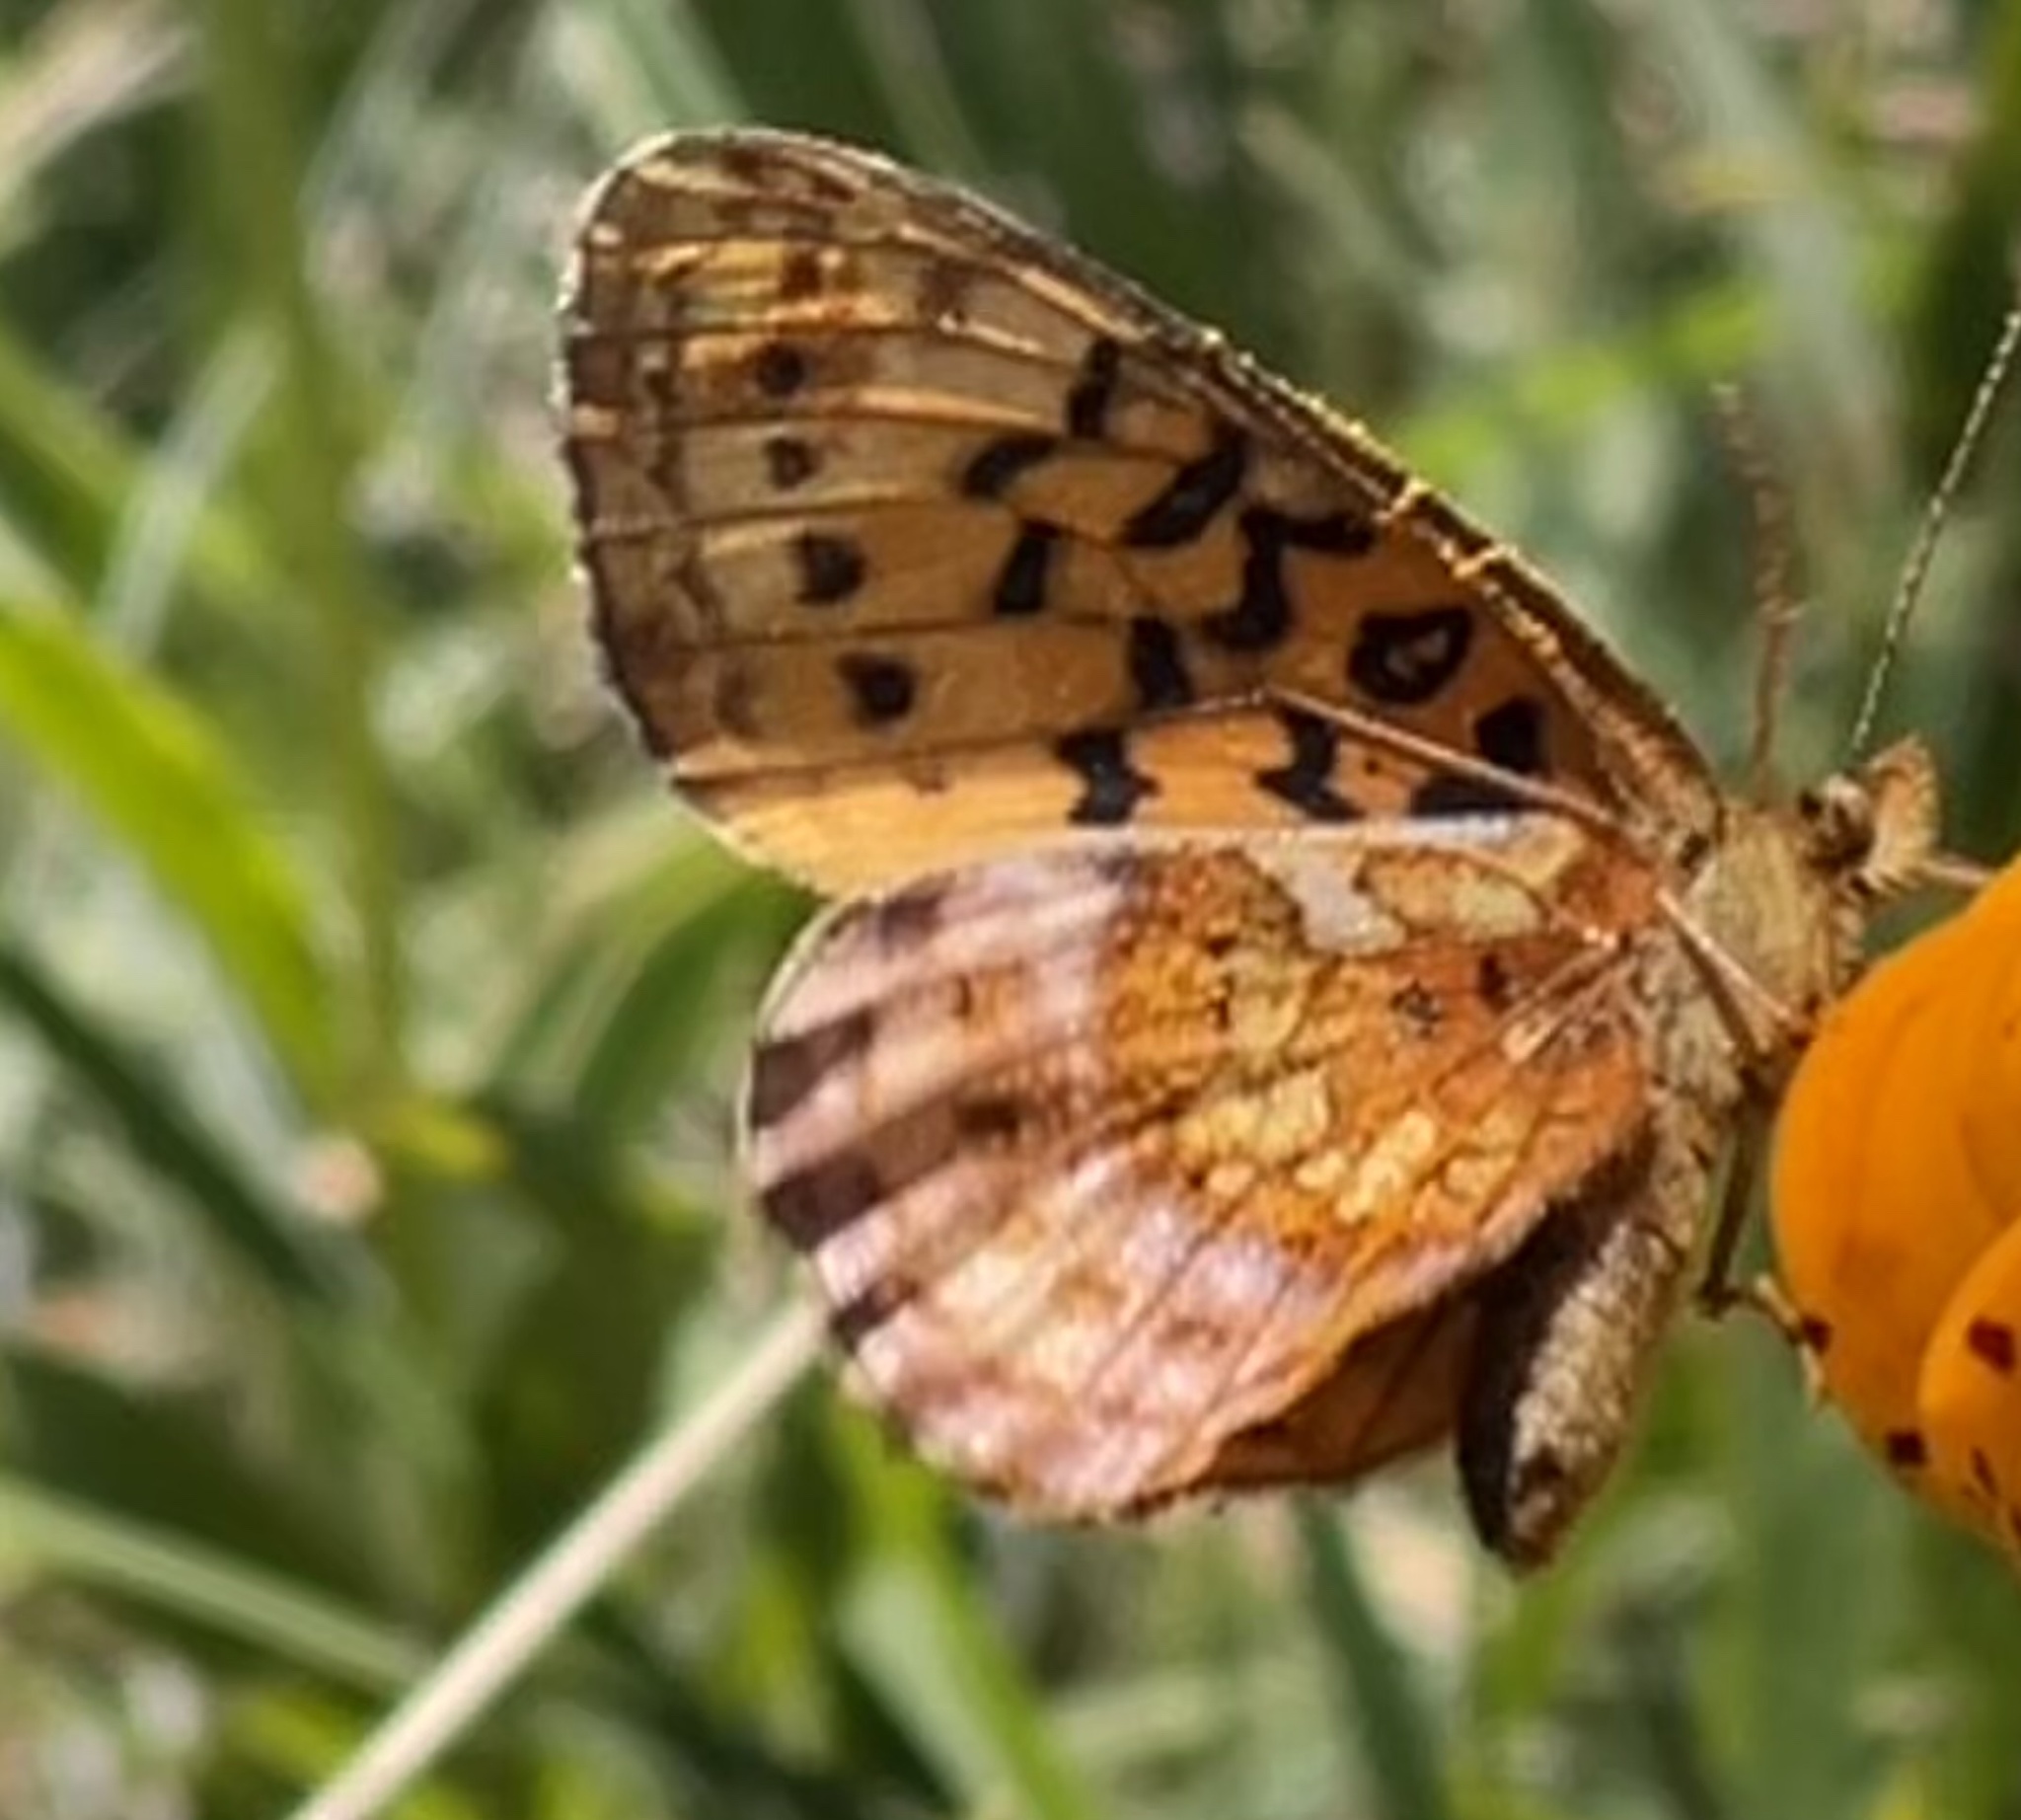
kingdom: Animalia
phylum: Arthropoda
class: Insecta
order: Lepidoptera
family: Nymphalidae
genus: Boloria
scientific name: Boloria epithore
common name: Pacific fritillary
